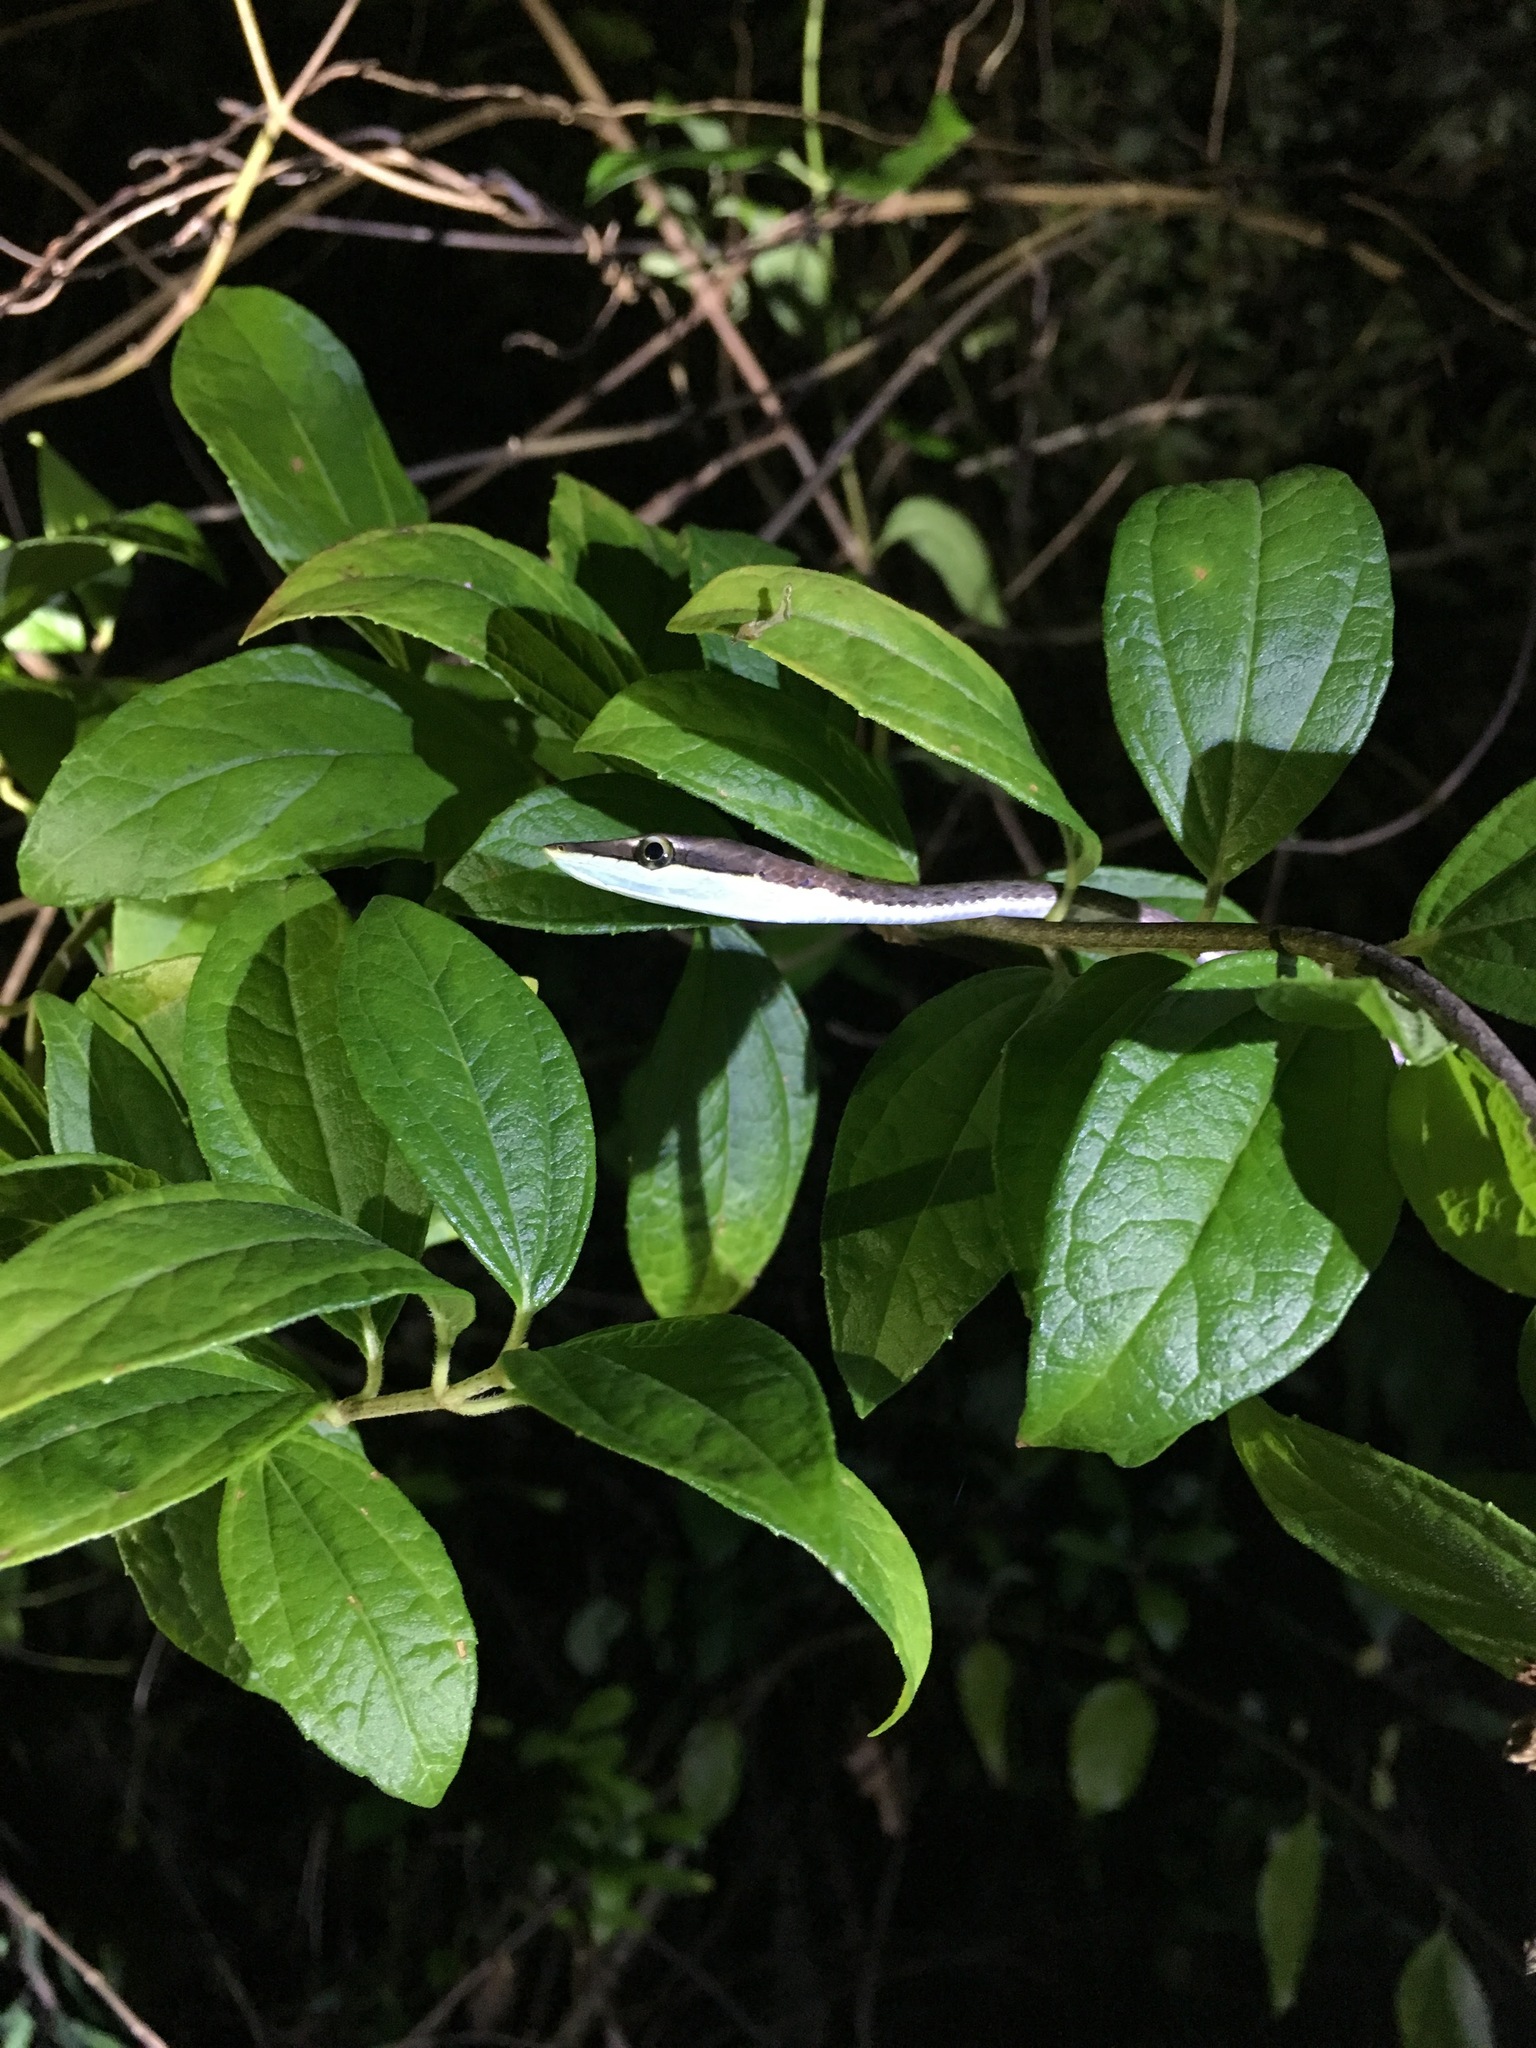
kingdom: Animalia
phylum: Chordata
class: Squamata
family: Colubridae
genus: Oxybelis
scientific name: Oxybelis vittatus
